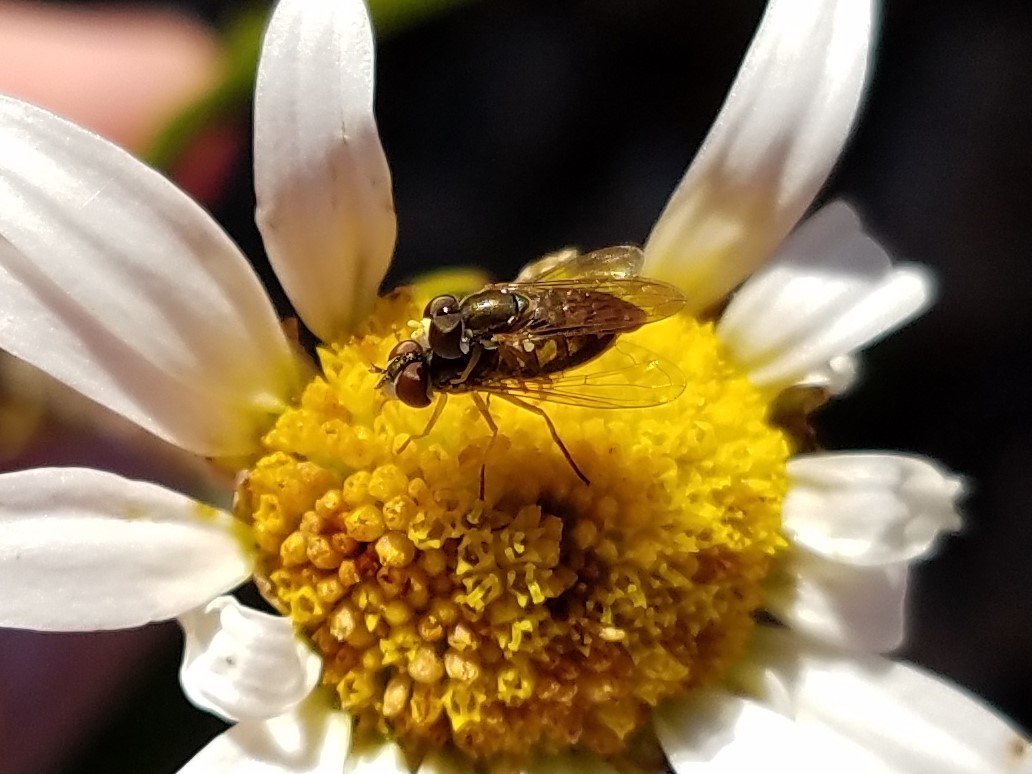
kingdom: Animalia
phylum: Arthropoda
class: Insecta
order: Diptera
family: Syrphidae
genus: Toxomerus
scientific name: Toxomerus marginatus
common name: Syrphid fly
